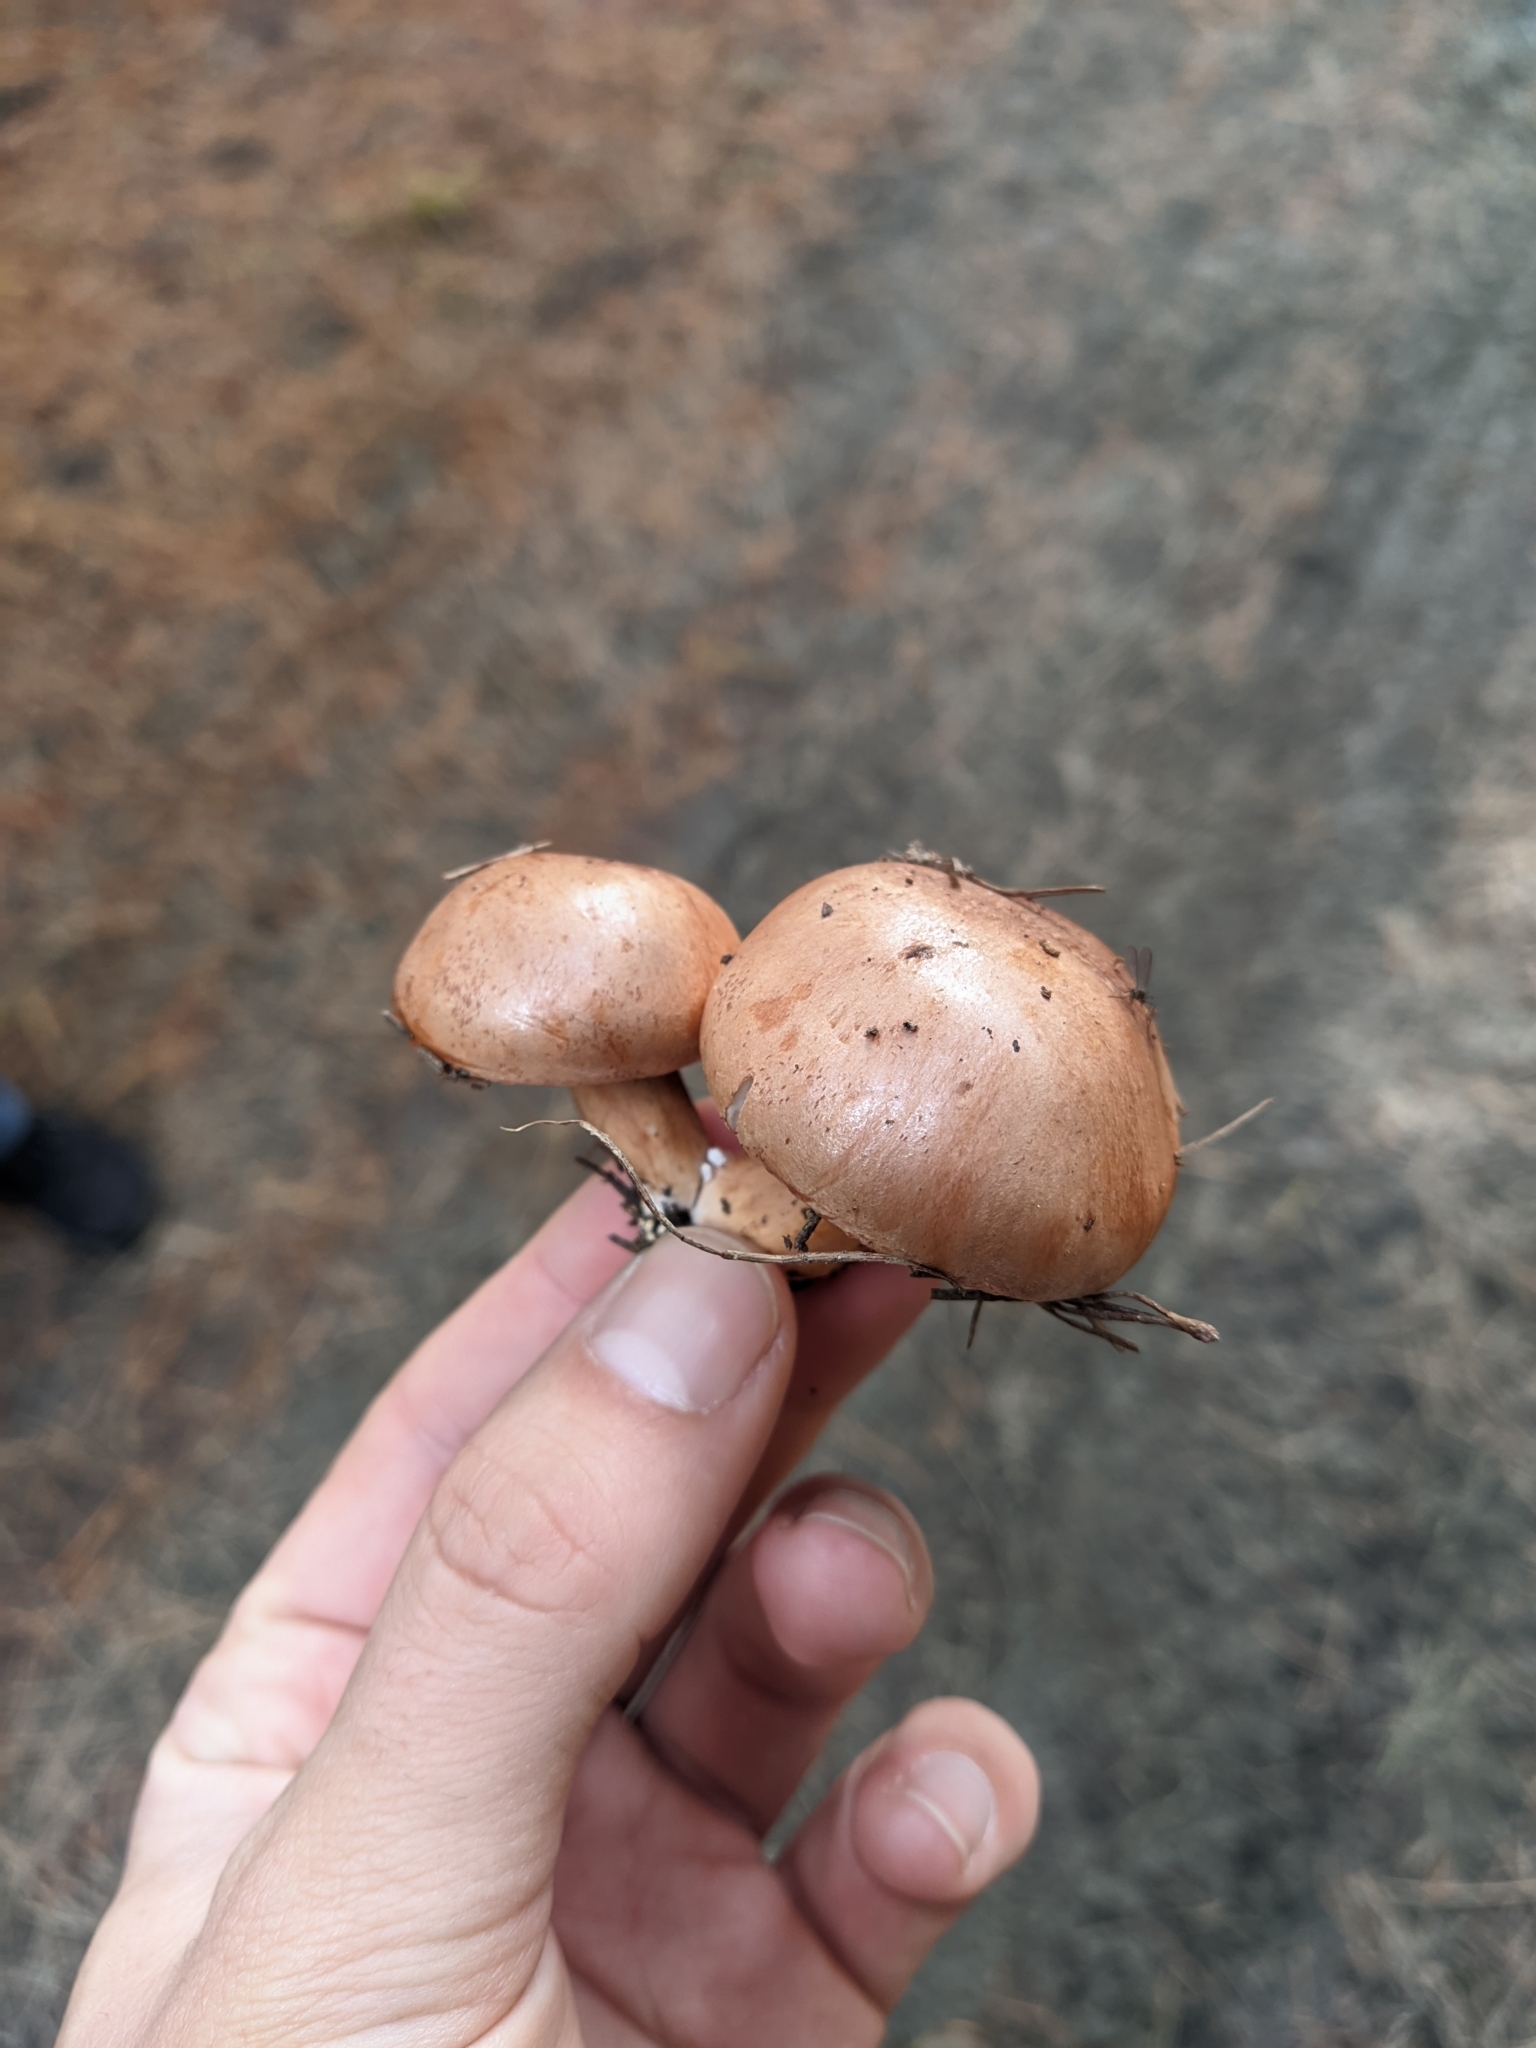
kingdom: Fungi
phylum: Basidiomycota
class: Agaricomycetes
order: Agaricales
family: Tricholomataceae
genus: Tricholoma
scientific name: Tricholoma batschii
